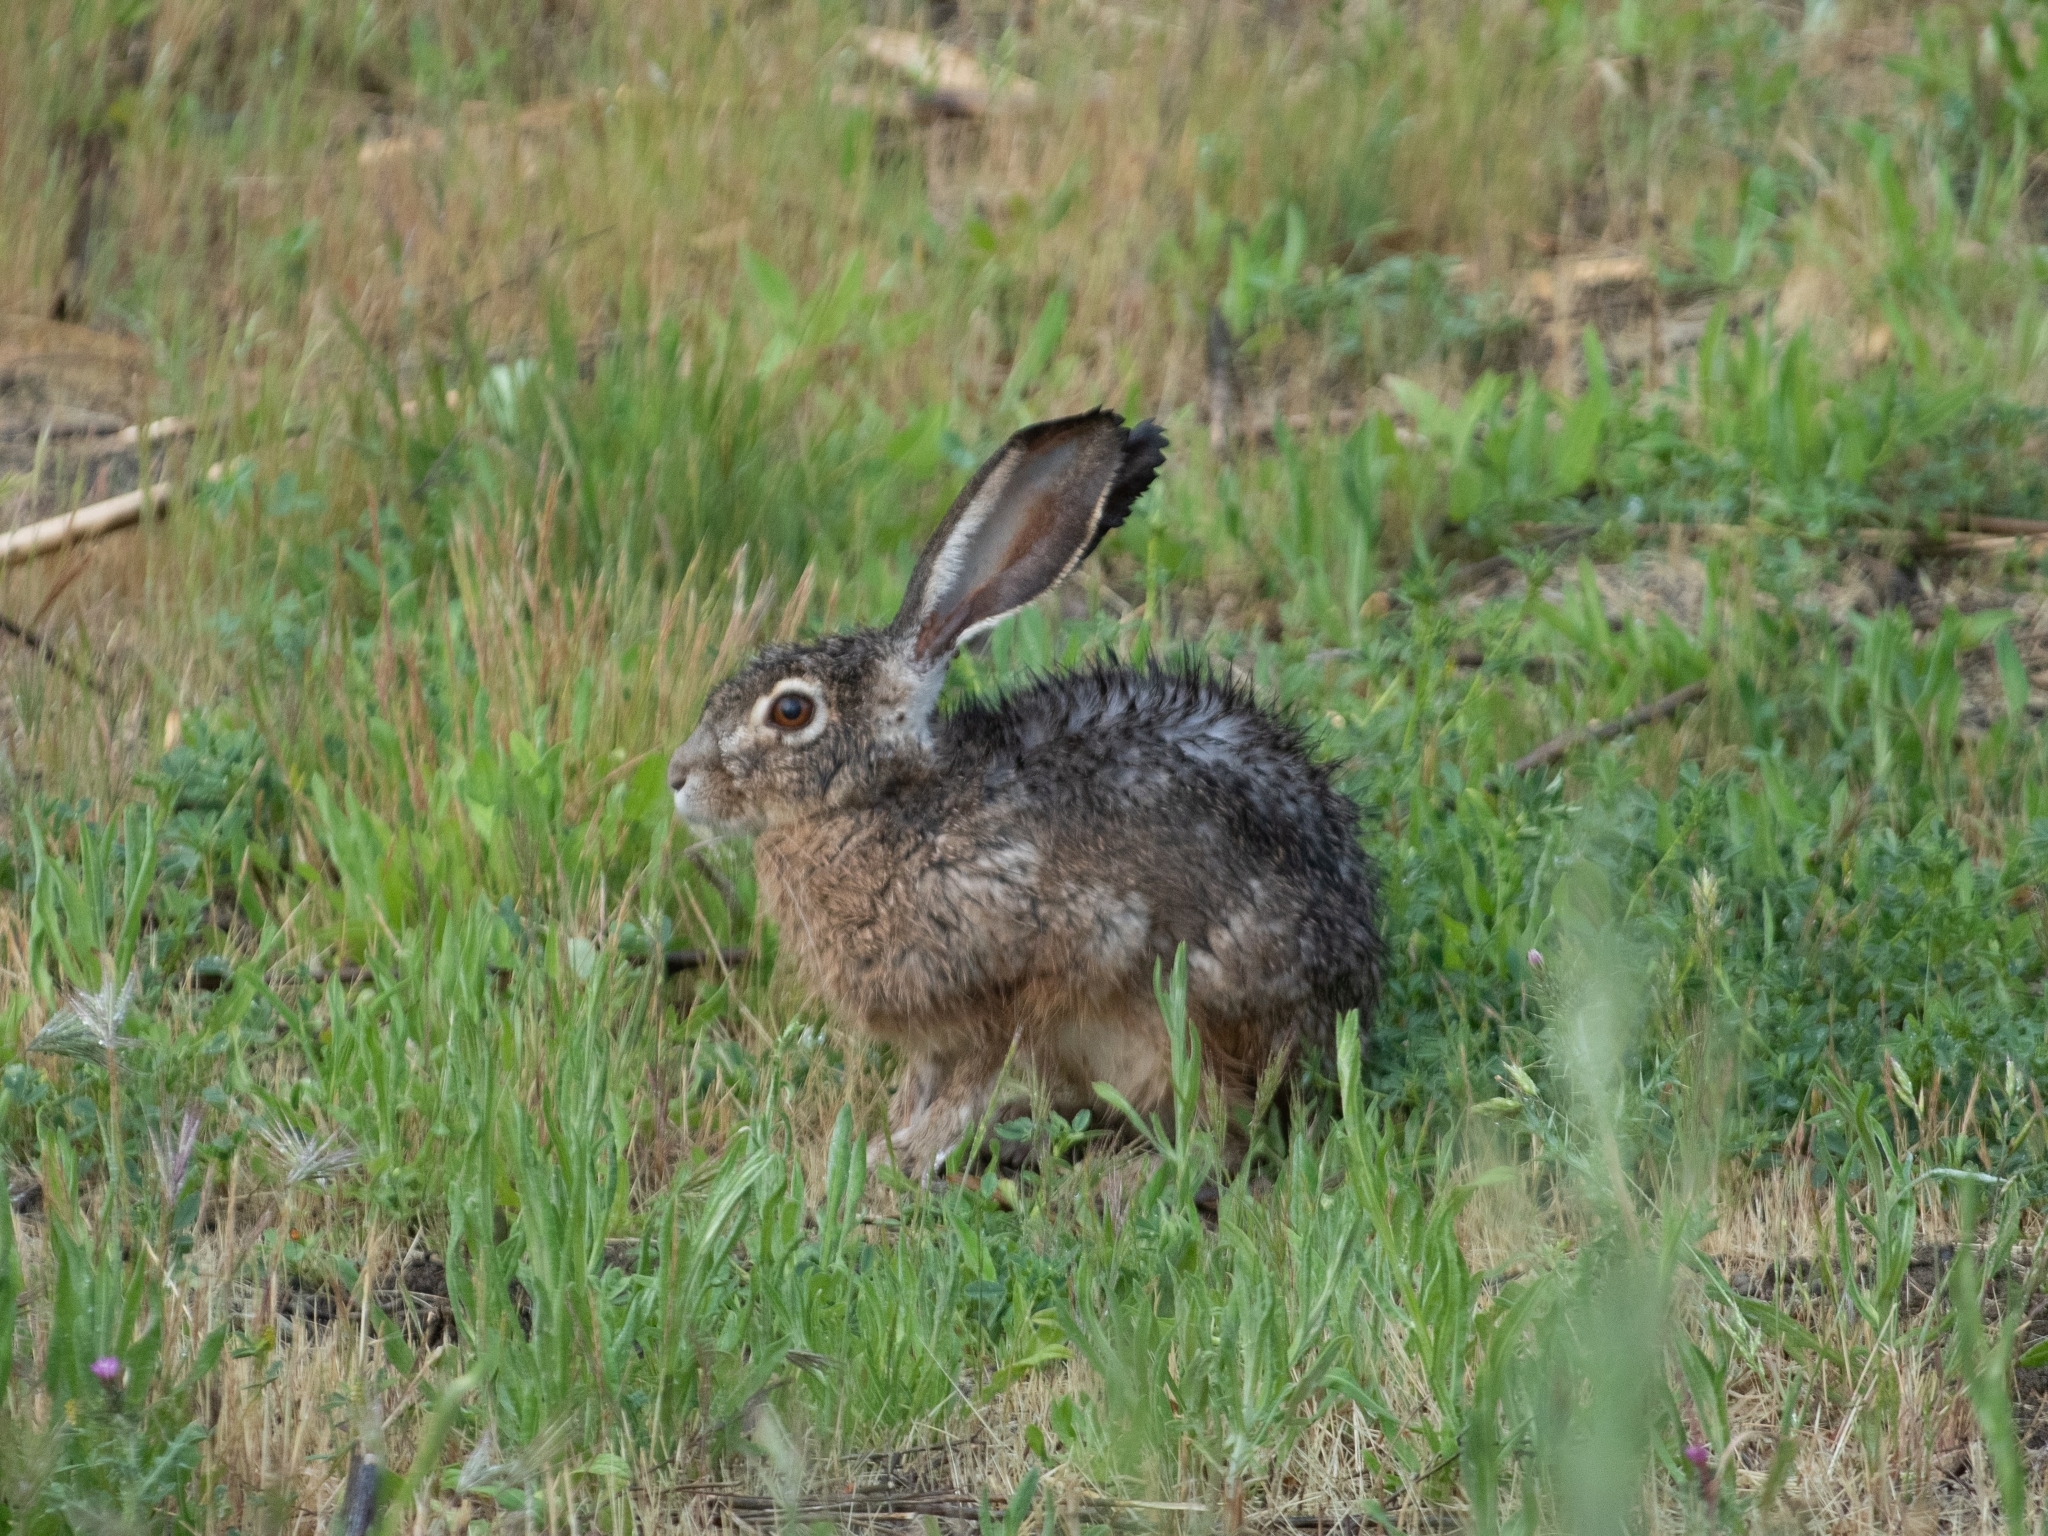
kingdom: Animalia
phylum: Chordata
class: Mammalia
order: Lagomorpha
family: Leporidae
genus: Lepus
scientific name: Lepus californicus
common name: Black-tailed jackrabbit
